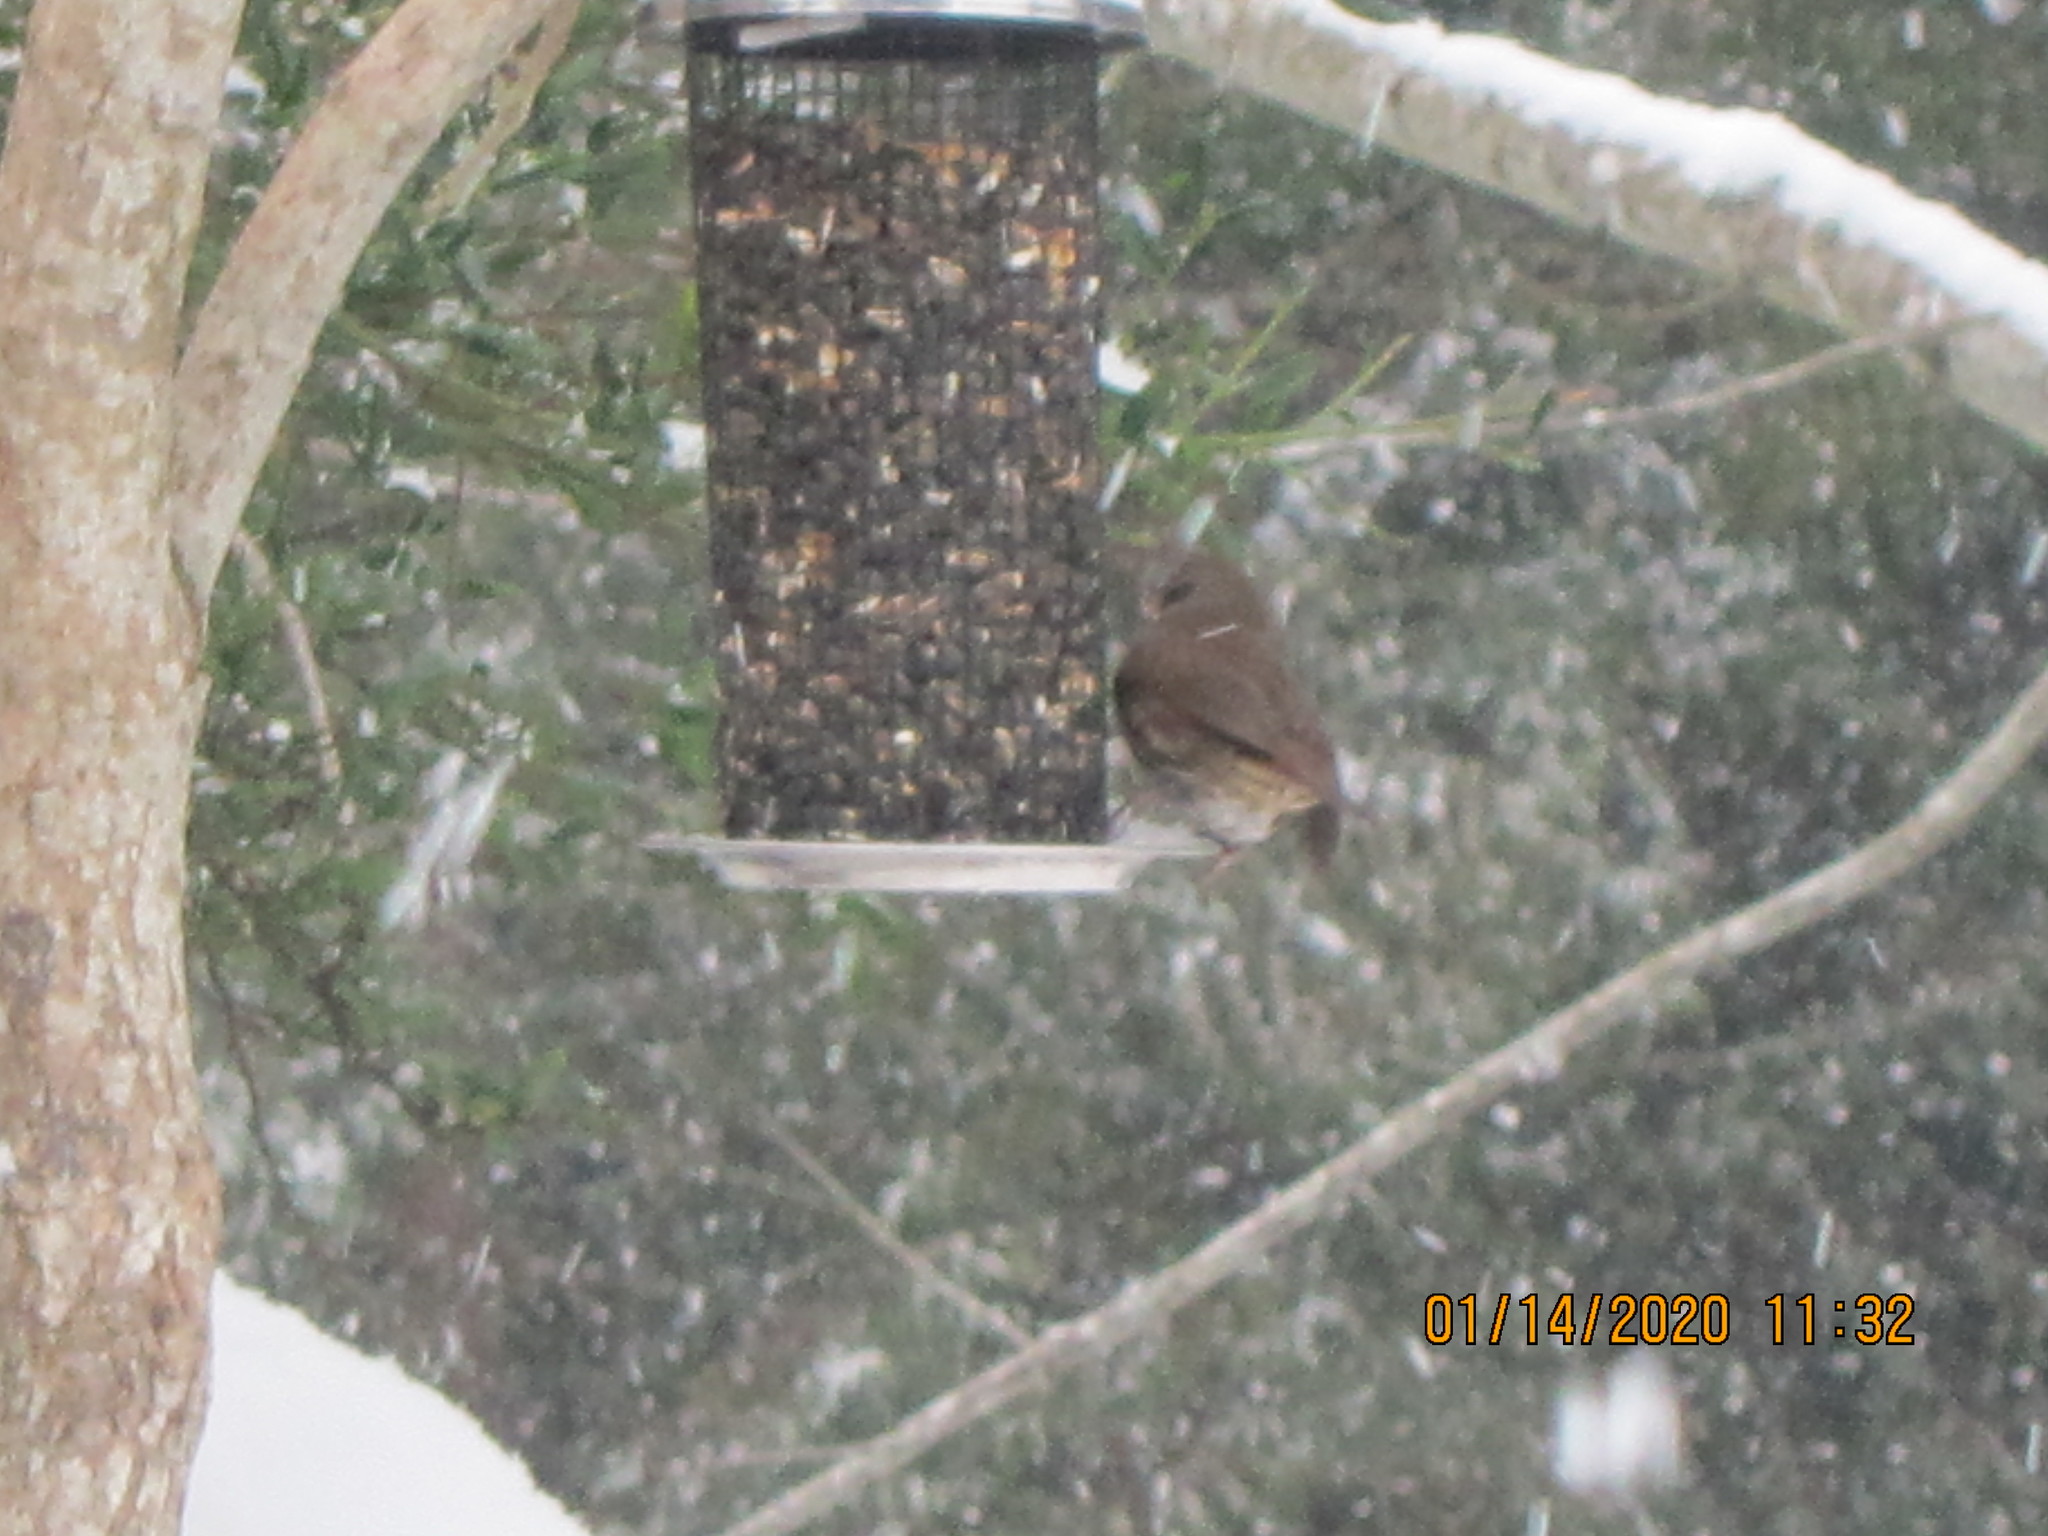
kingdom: Animalia
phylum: Chordata
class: Aves
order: Passeriformes
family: Passerellidae
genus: Passerella
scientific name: Passerella iliaca
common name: Fox sparrow
